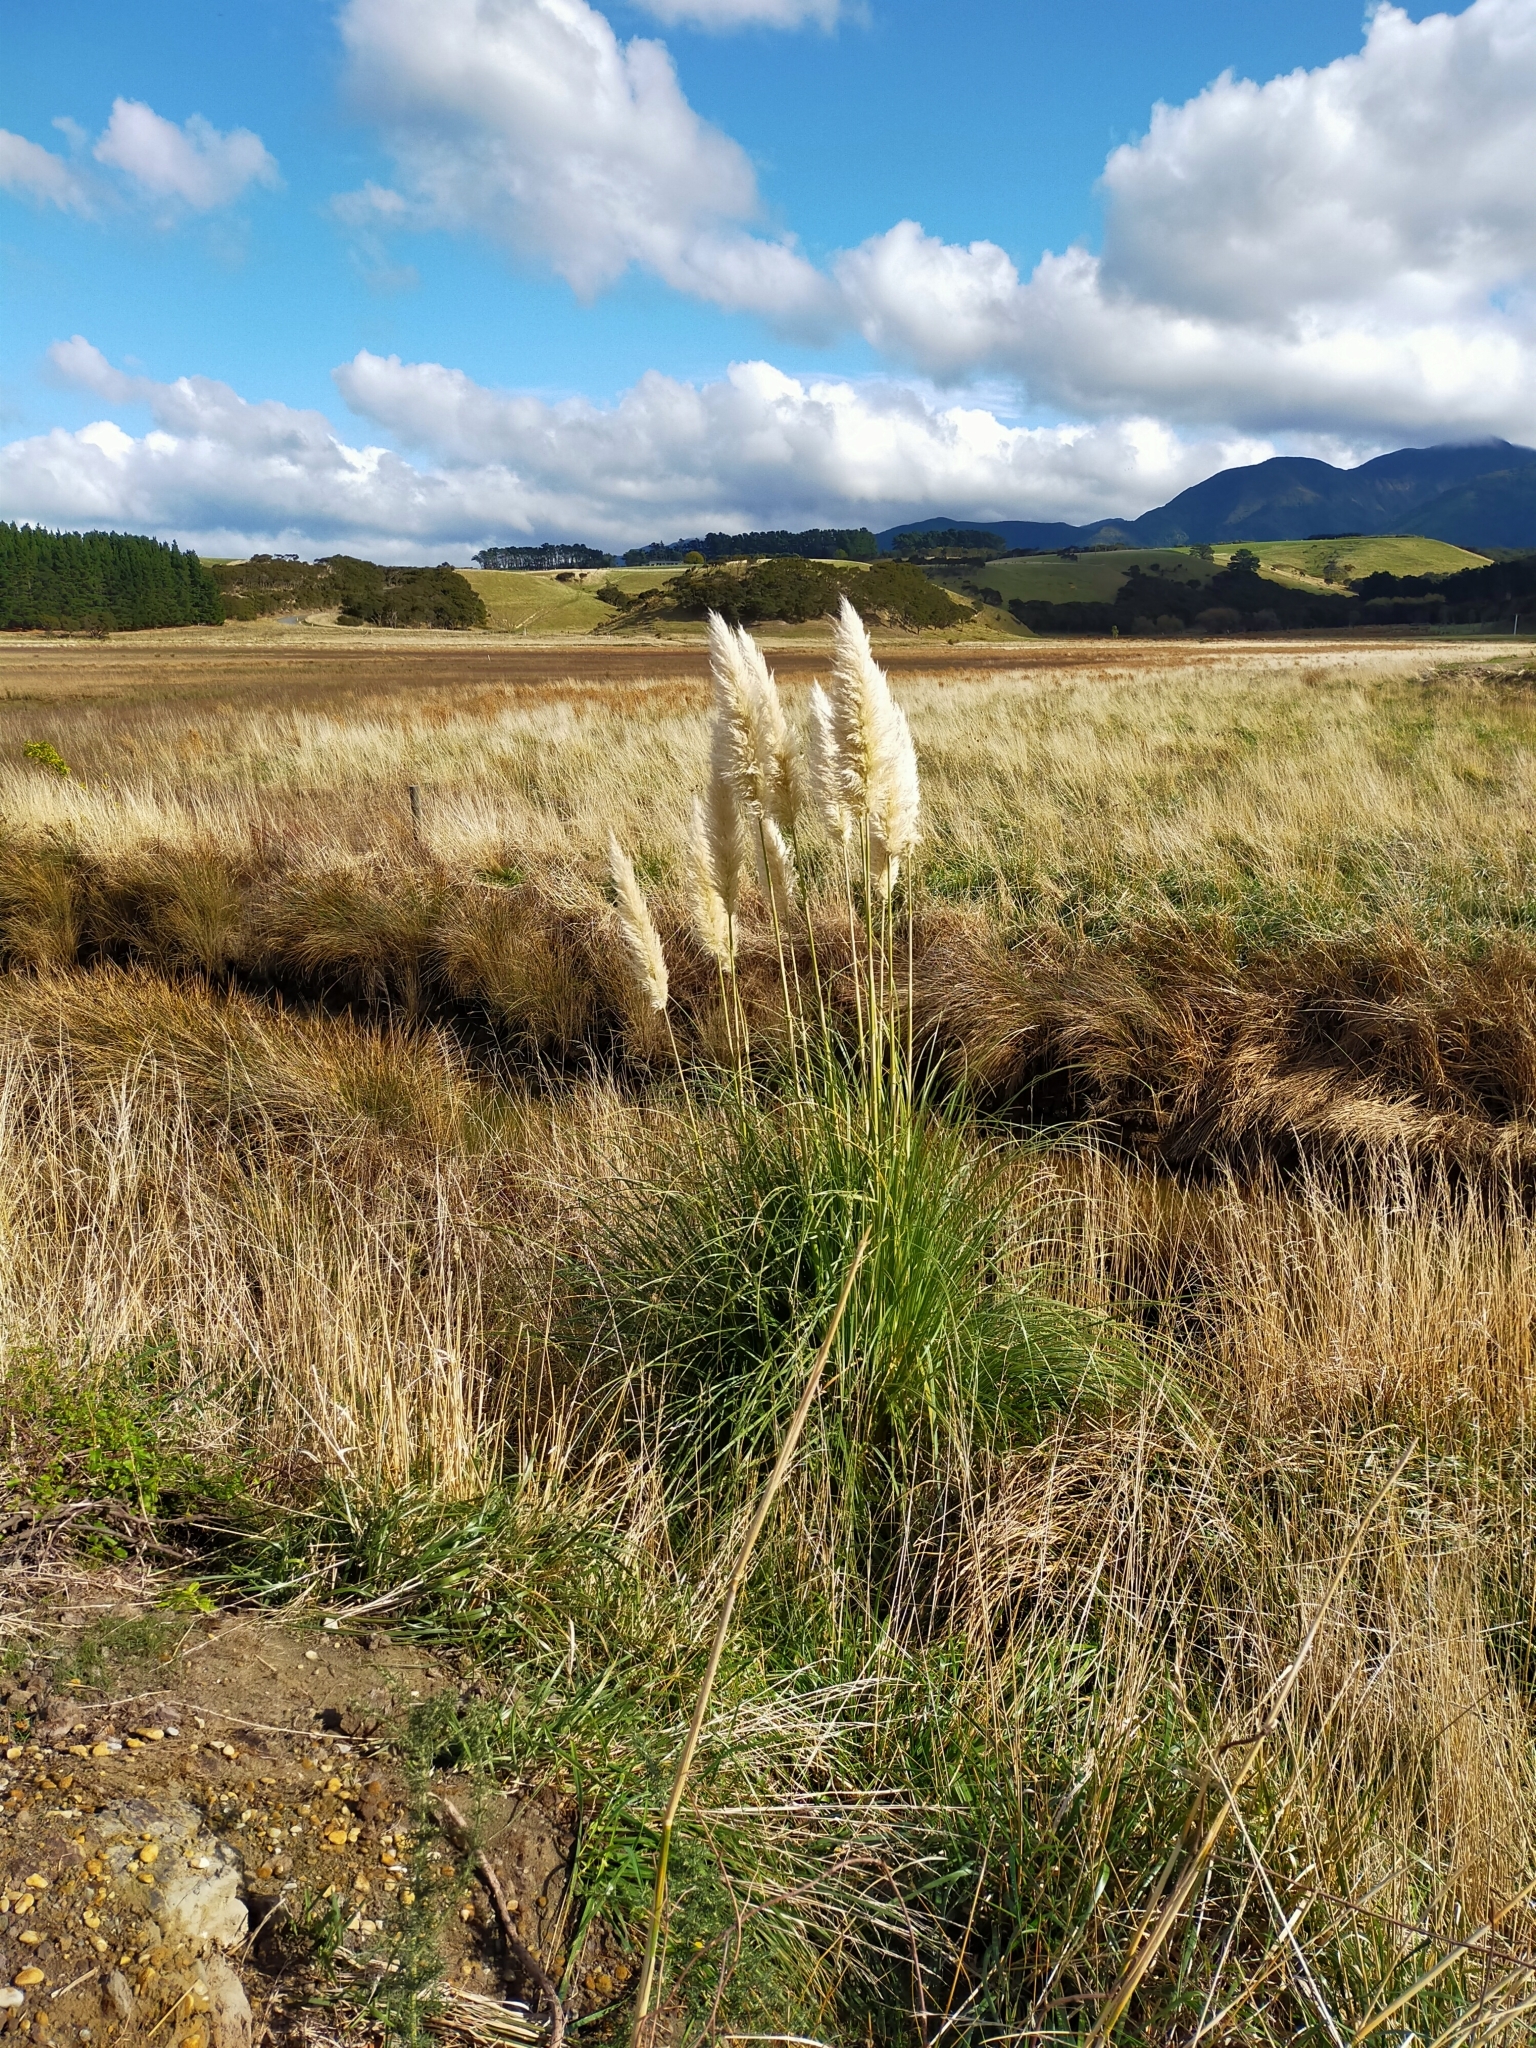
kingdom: Plantae
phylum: Tracheophyta
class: Liliopsida
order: Poales
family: Poaceae
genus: Cortaderia
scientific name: Cortaderia selloana
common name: Uruguayan pampas grass
